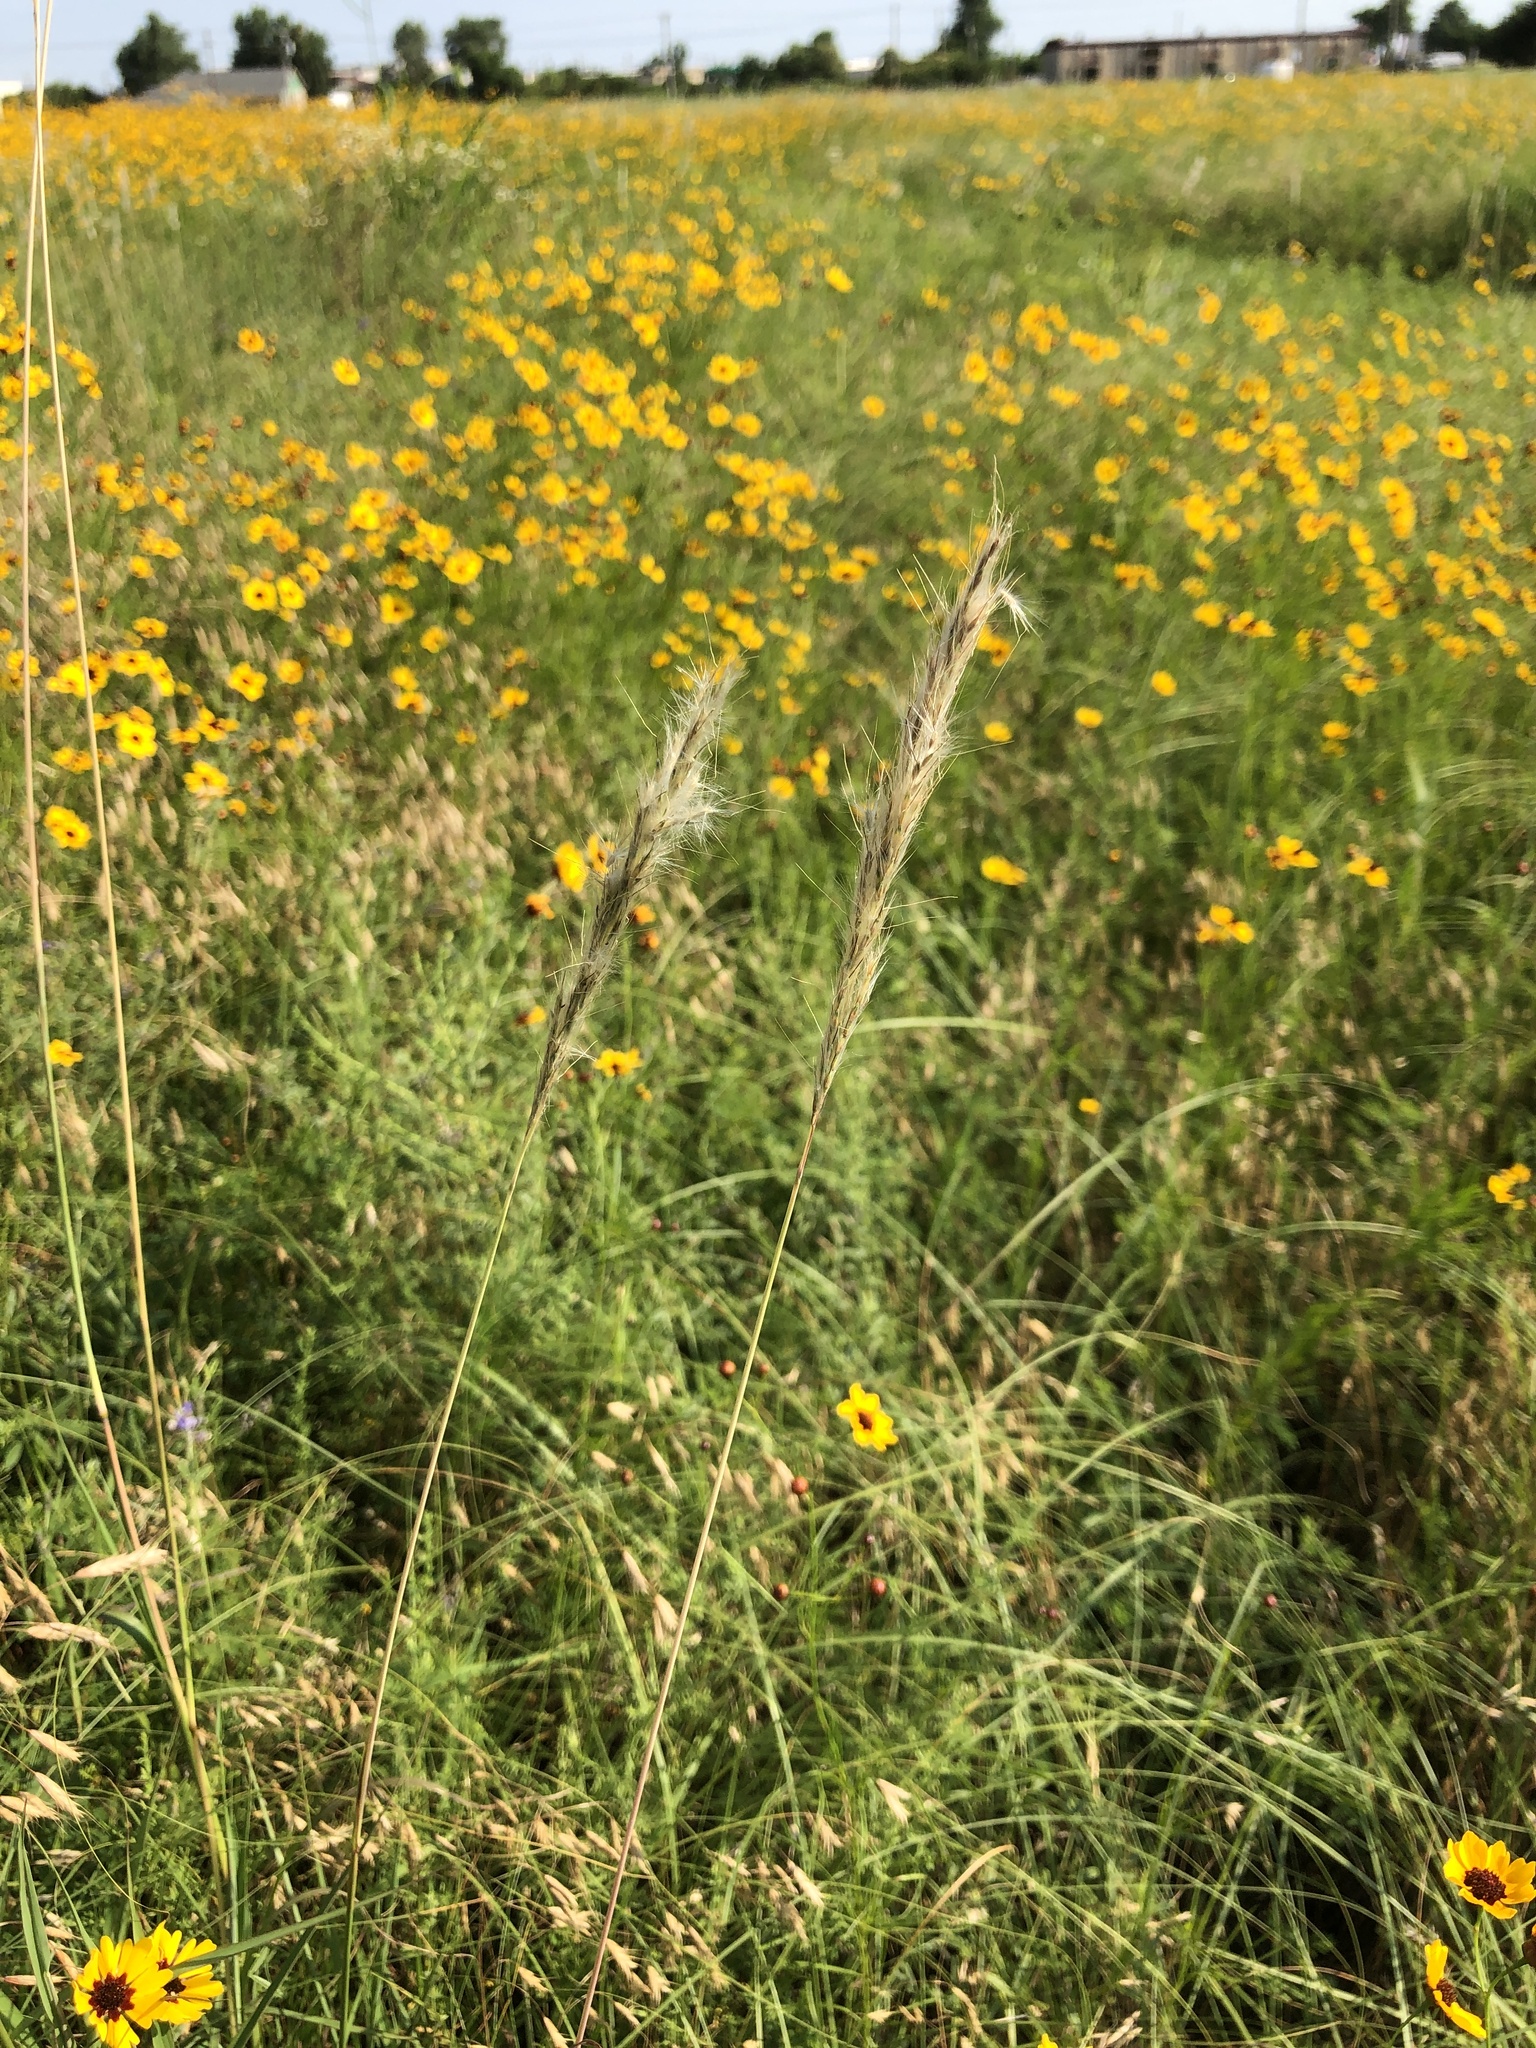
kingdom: Plantae
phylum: Tracheophyta
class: Liliopsida
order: Poales
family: Poaceae
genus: Bothriochloa
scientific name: Bothriochloa torreyana
